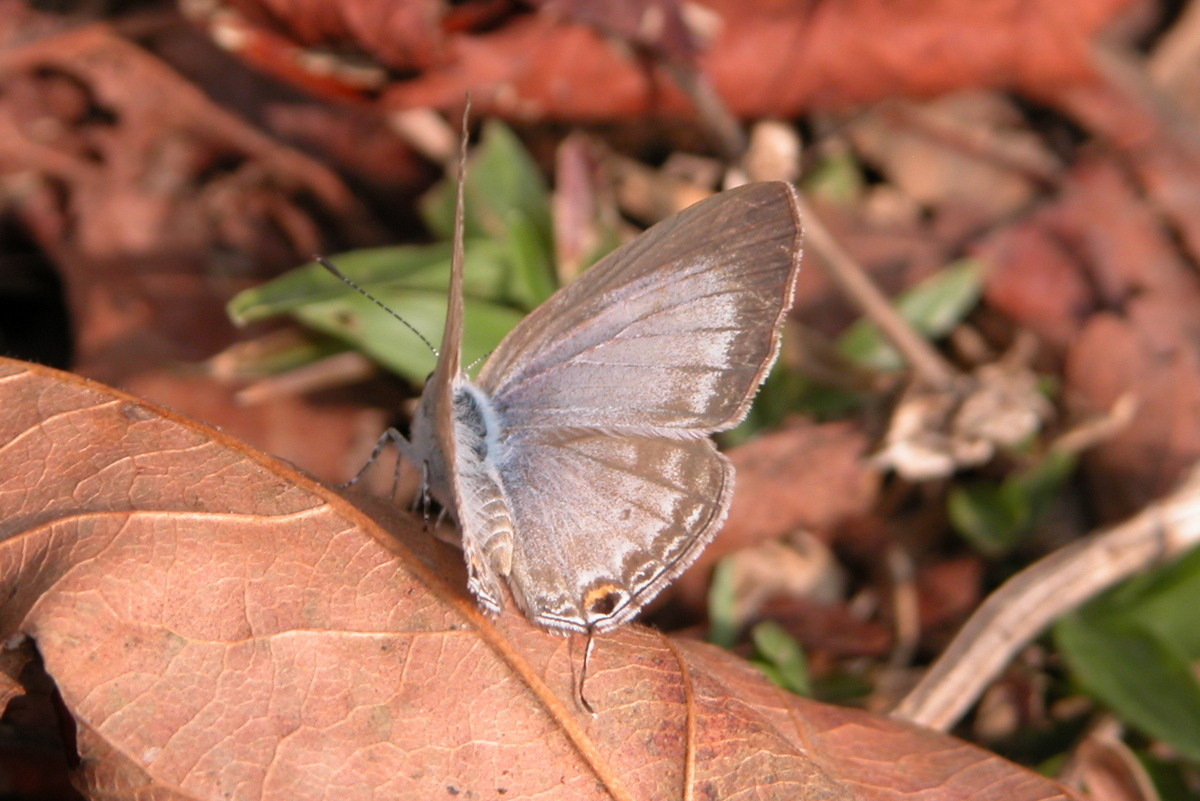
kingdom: Animalia
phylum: Arthropoda
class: Insecta
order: Lepidoptera
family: Lycaenidae
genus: Catochrysops
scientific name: Catochrysops strabo
